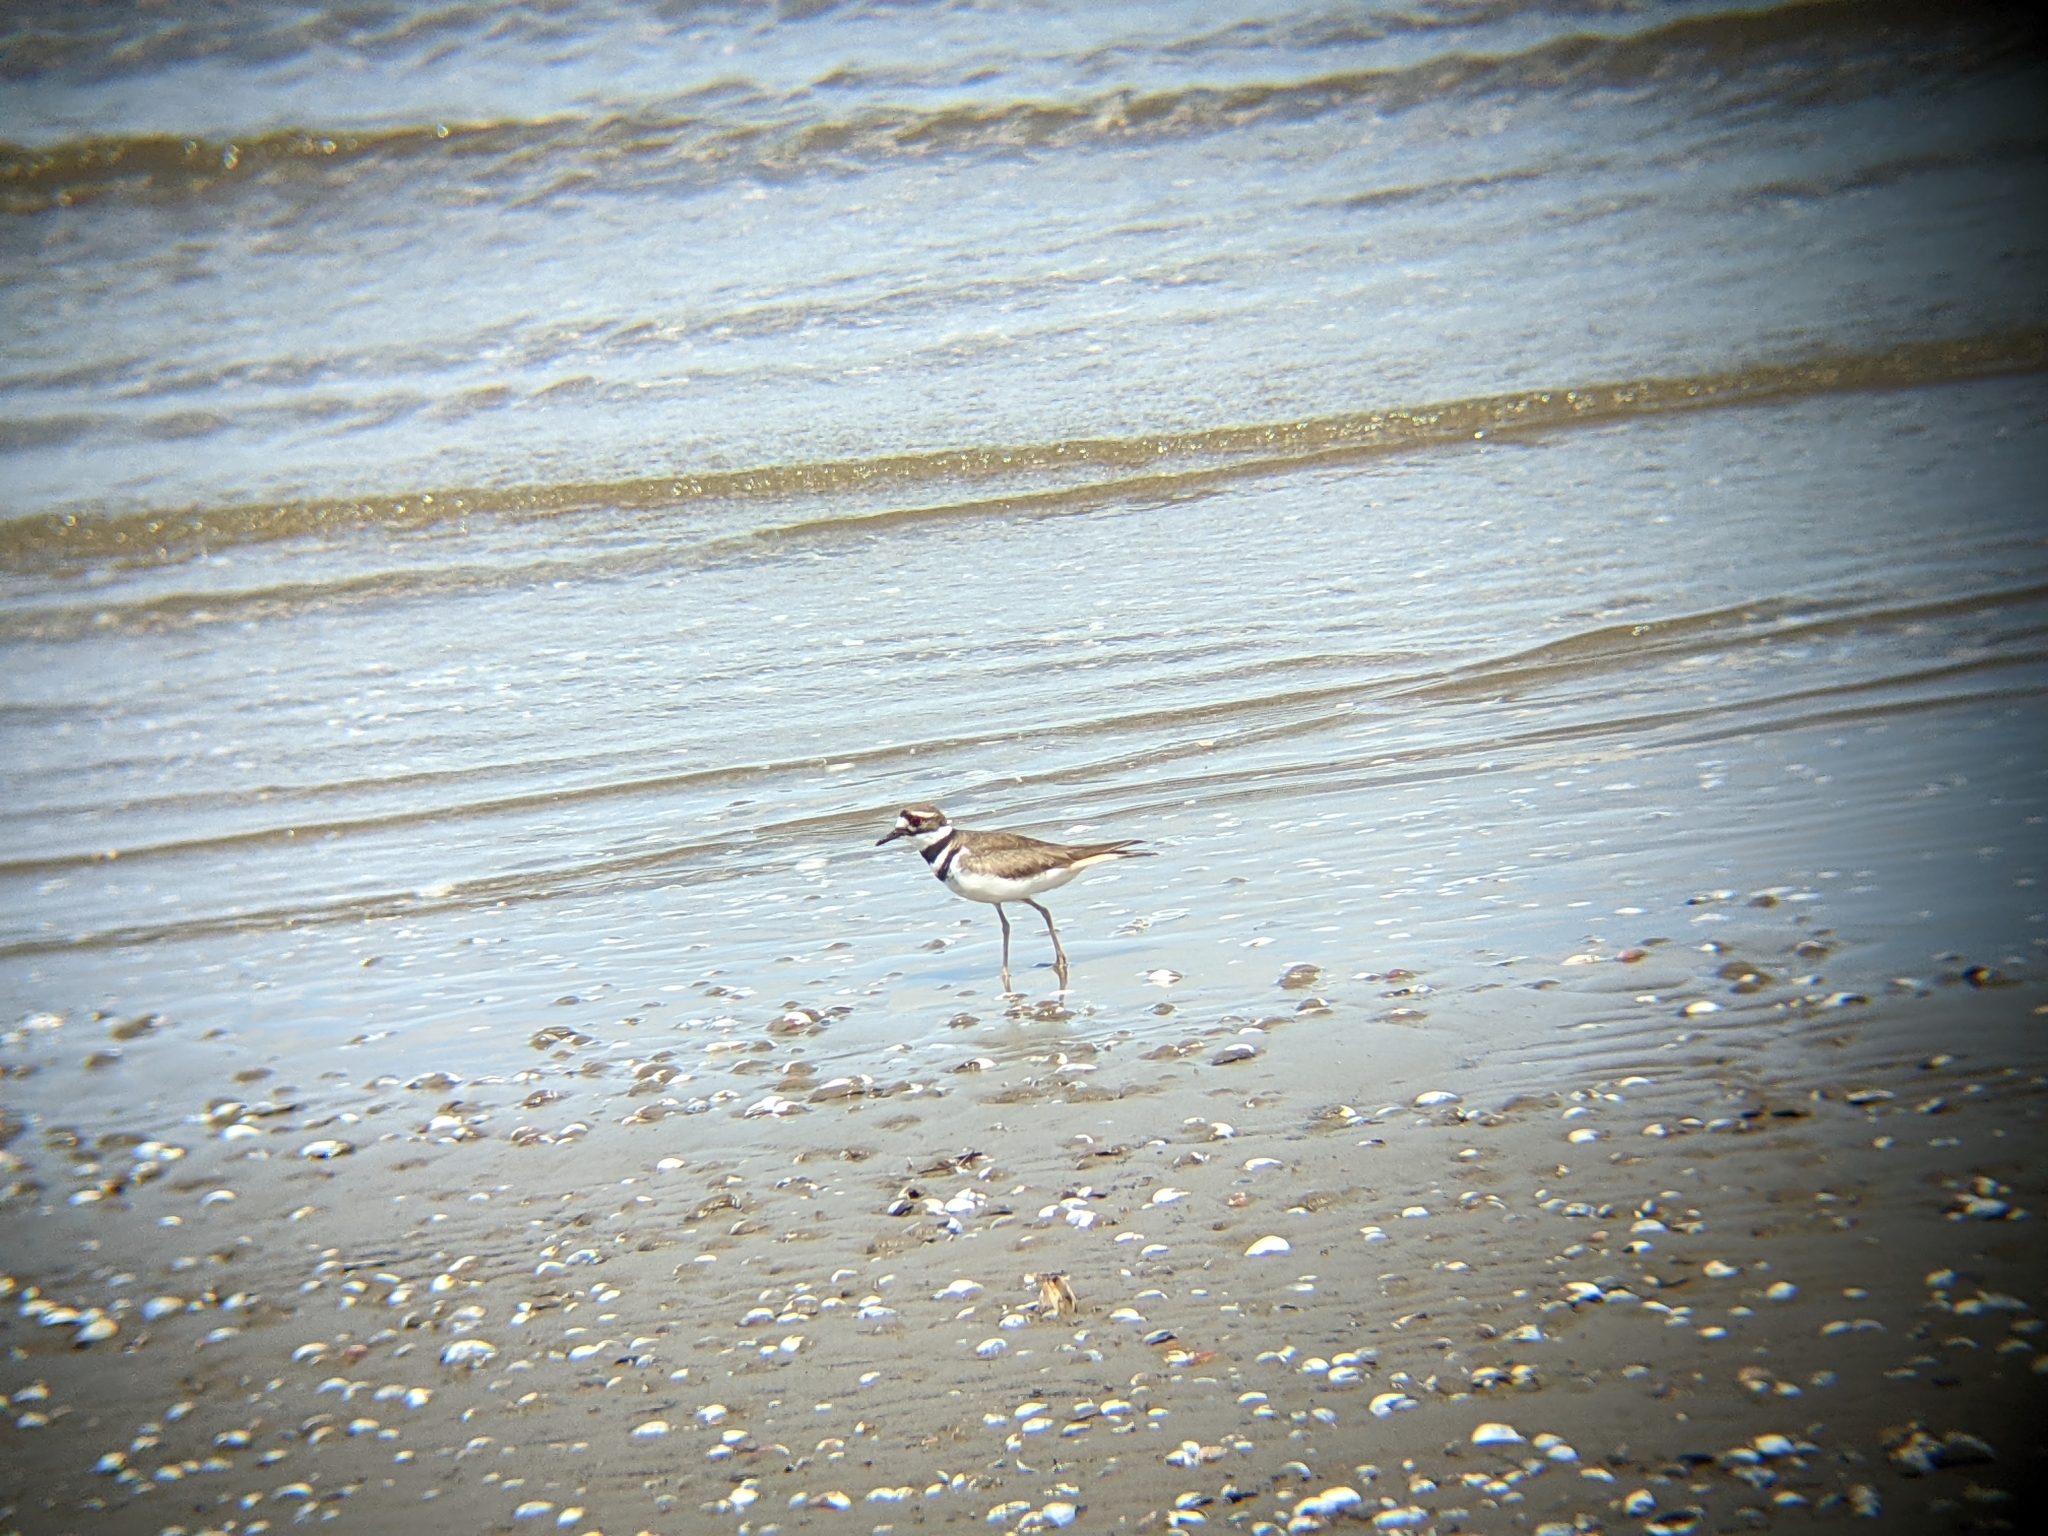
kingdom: Animalia
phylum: Chordata
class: Aves
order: Charadriiformes
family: Charadriidae
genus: Charadrius
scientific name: Charadrius vociferus
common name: Killdeer
